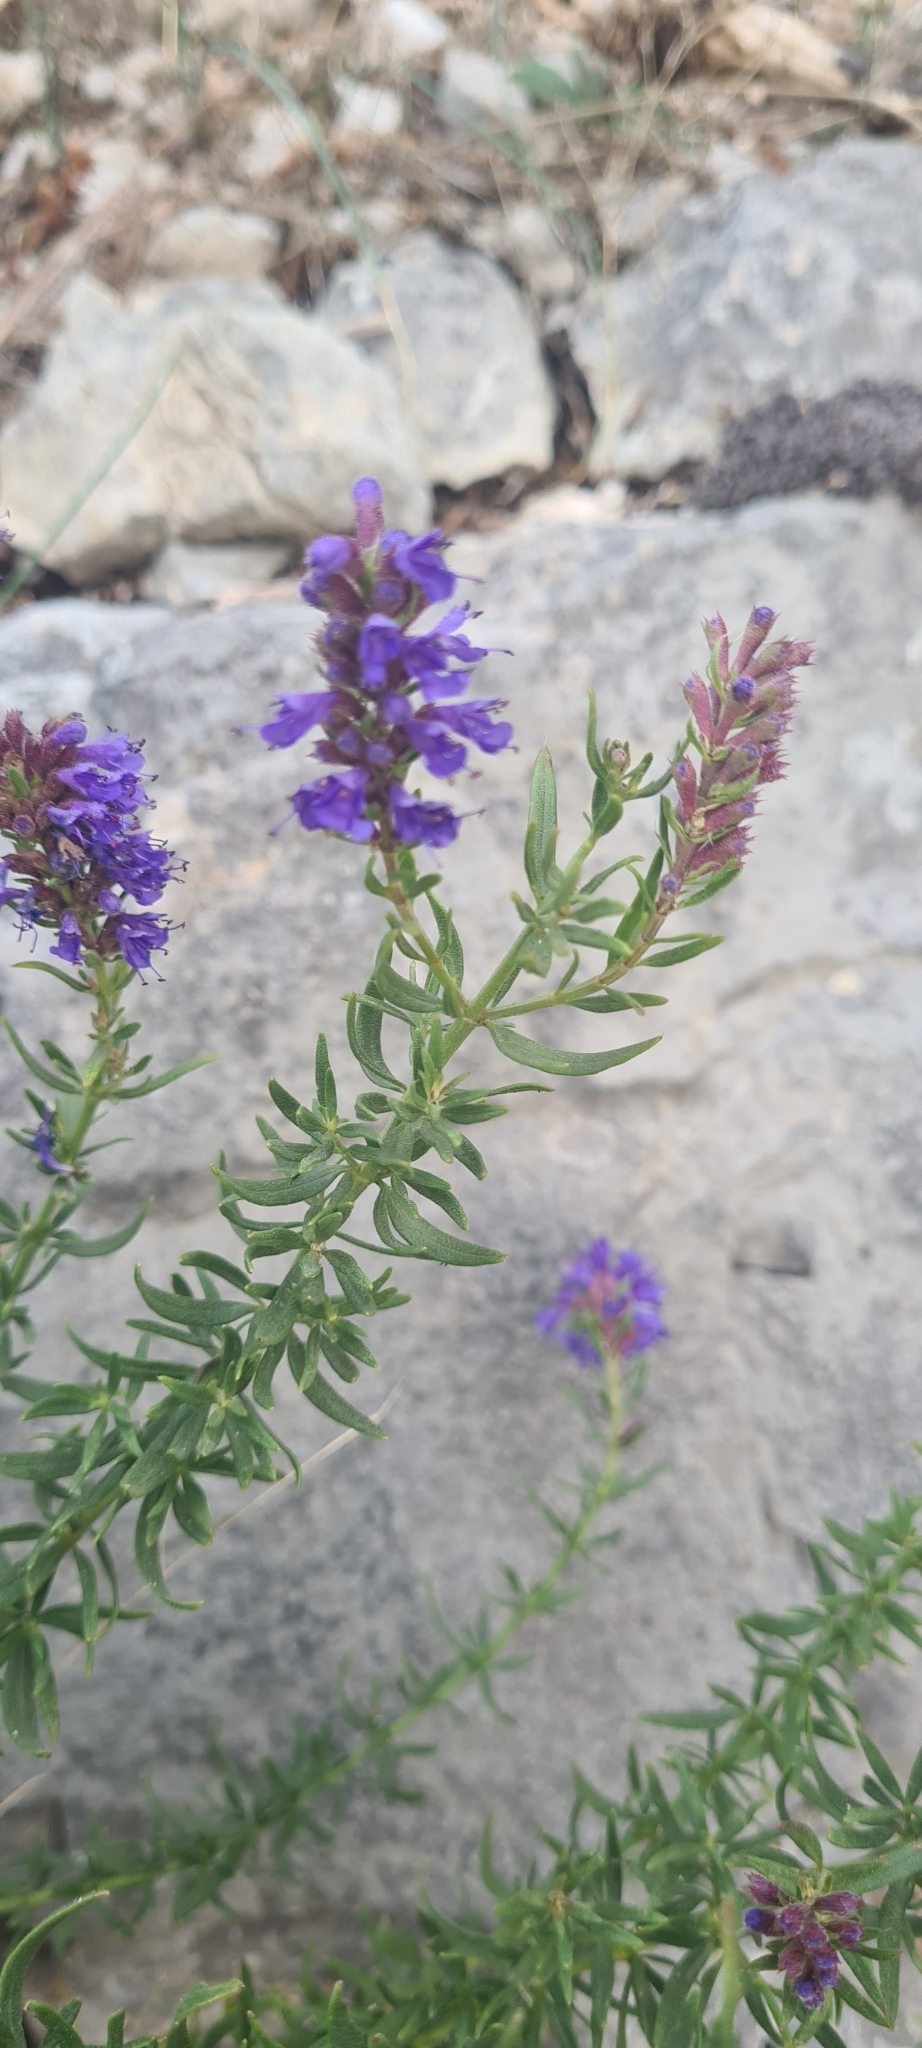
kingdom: Plantae
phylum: Tracheophyta
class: Magnoliopsida
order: Lamiales
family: Lamiaceae
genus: Hyssopus
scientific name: Hyssopus officinalis
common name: Hyssop
